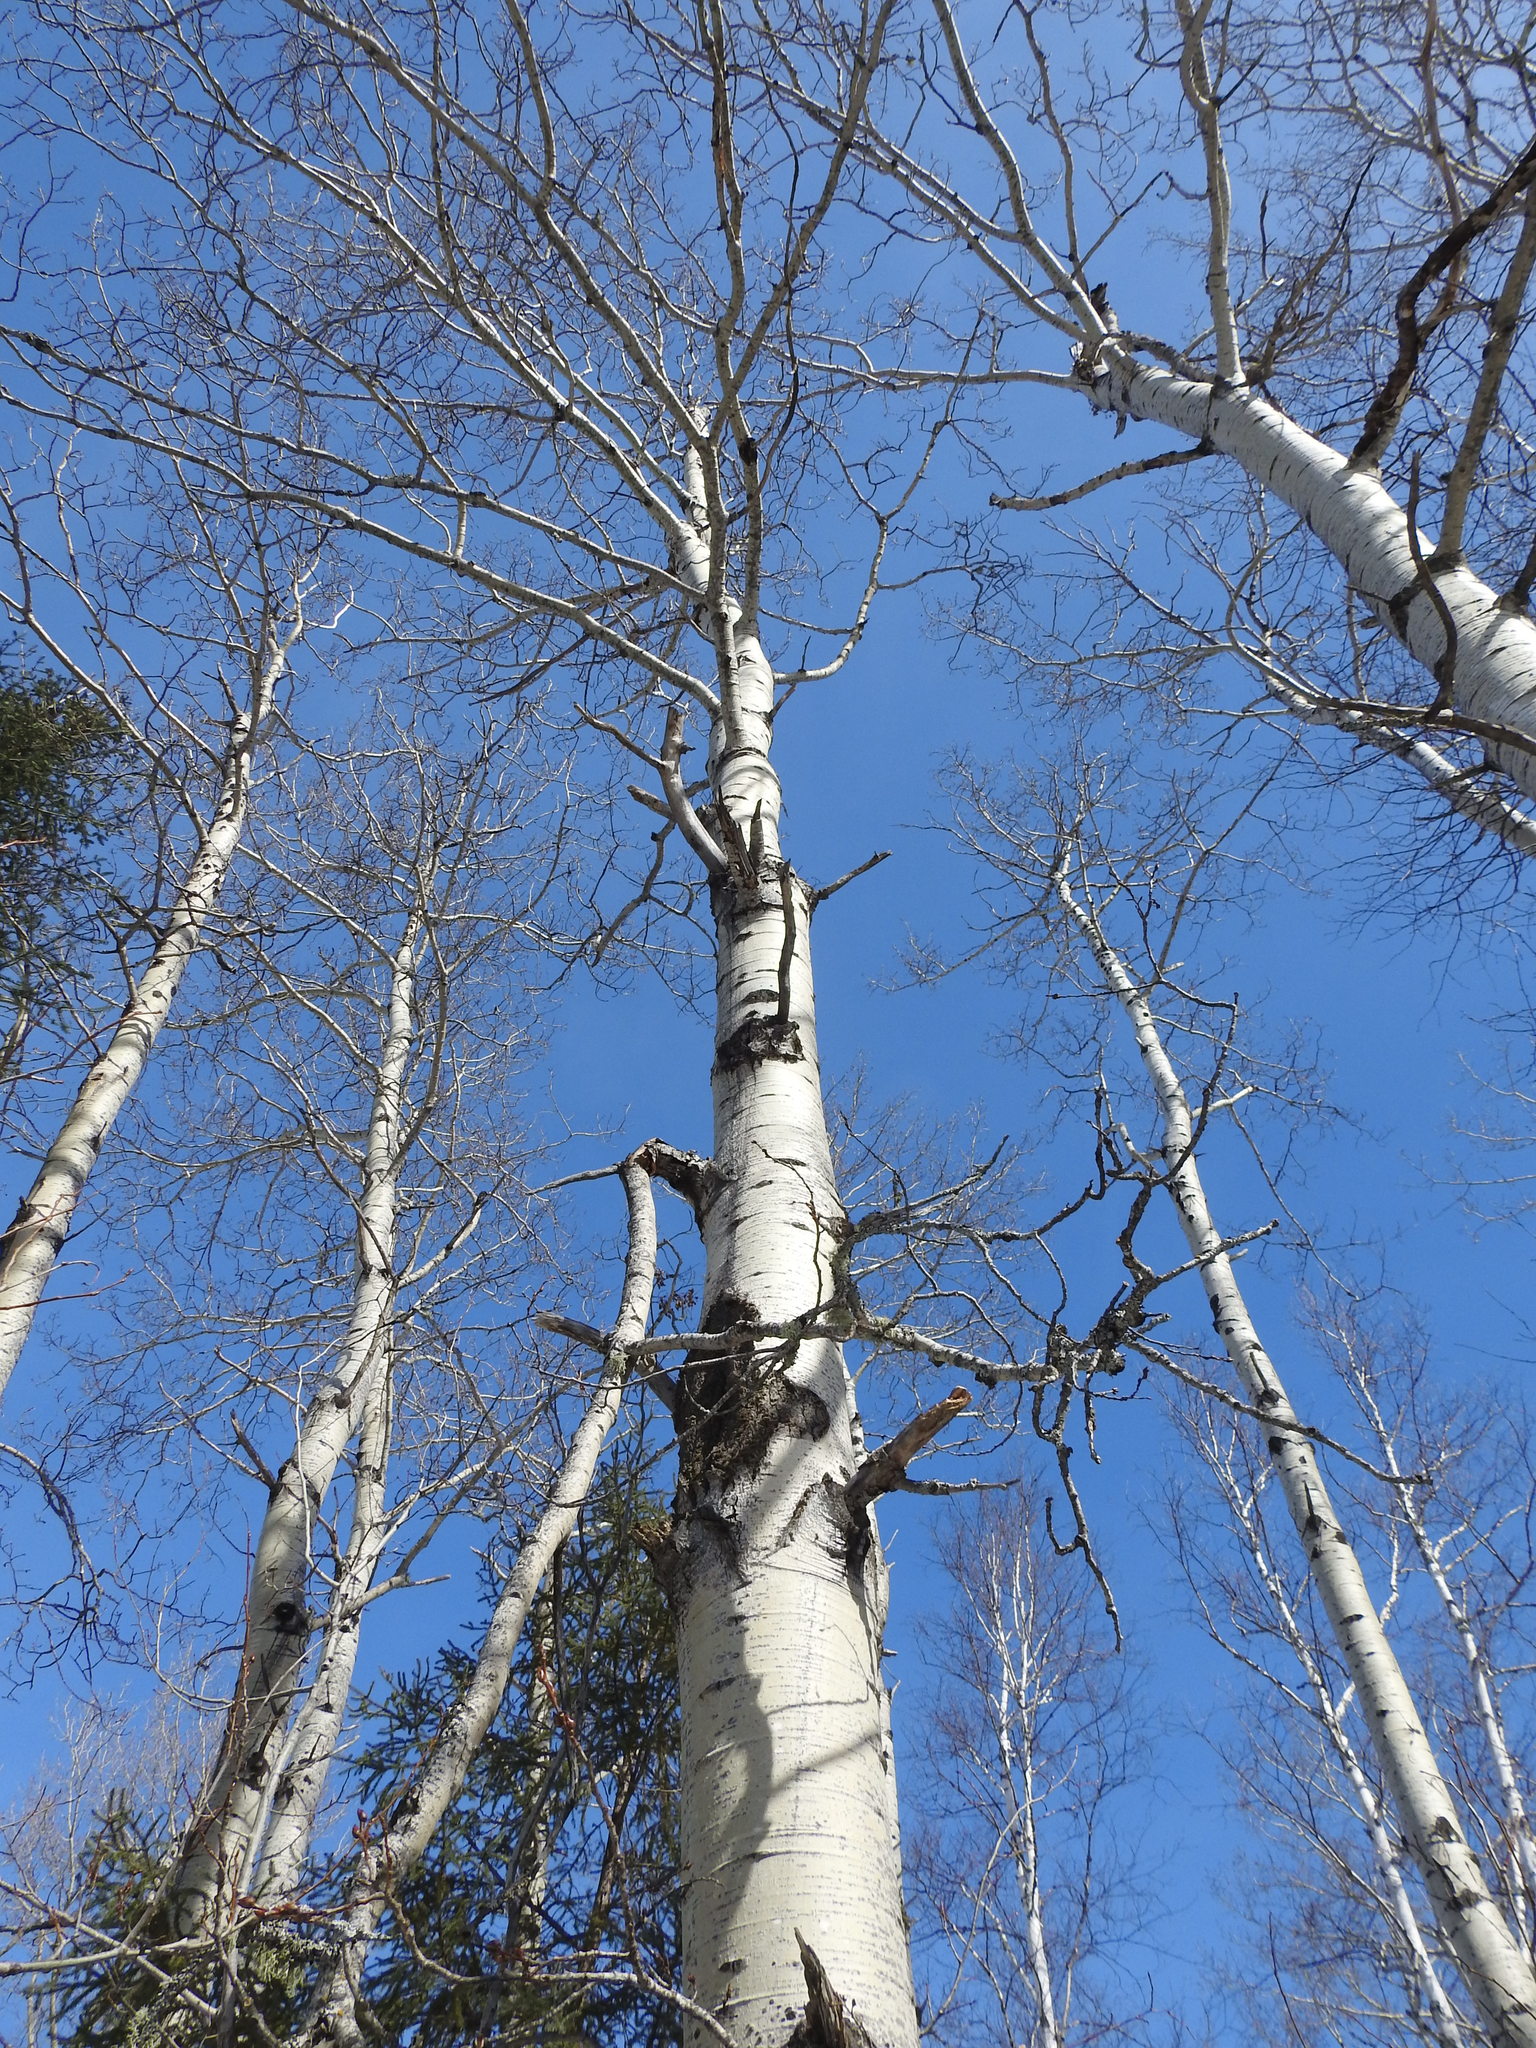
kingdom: Plantae
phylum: Tracheophyta
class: Magnoliopsida
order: Malpighiales
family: Salicaceae
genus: Populus
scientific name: Populus tremuloides
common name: Quaking aspen
